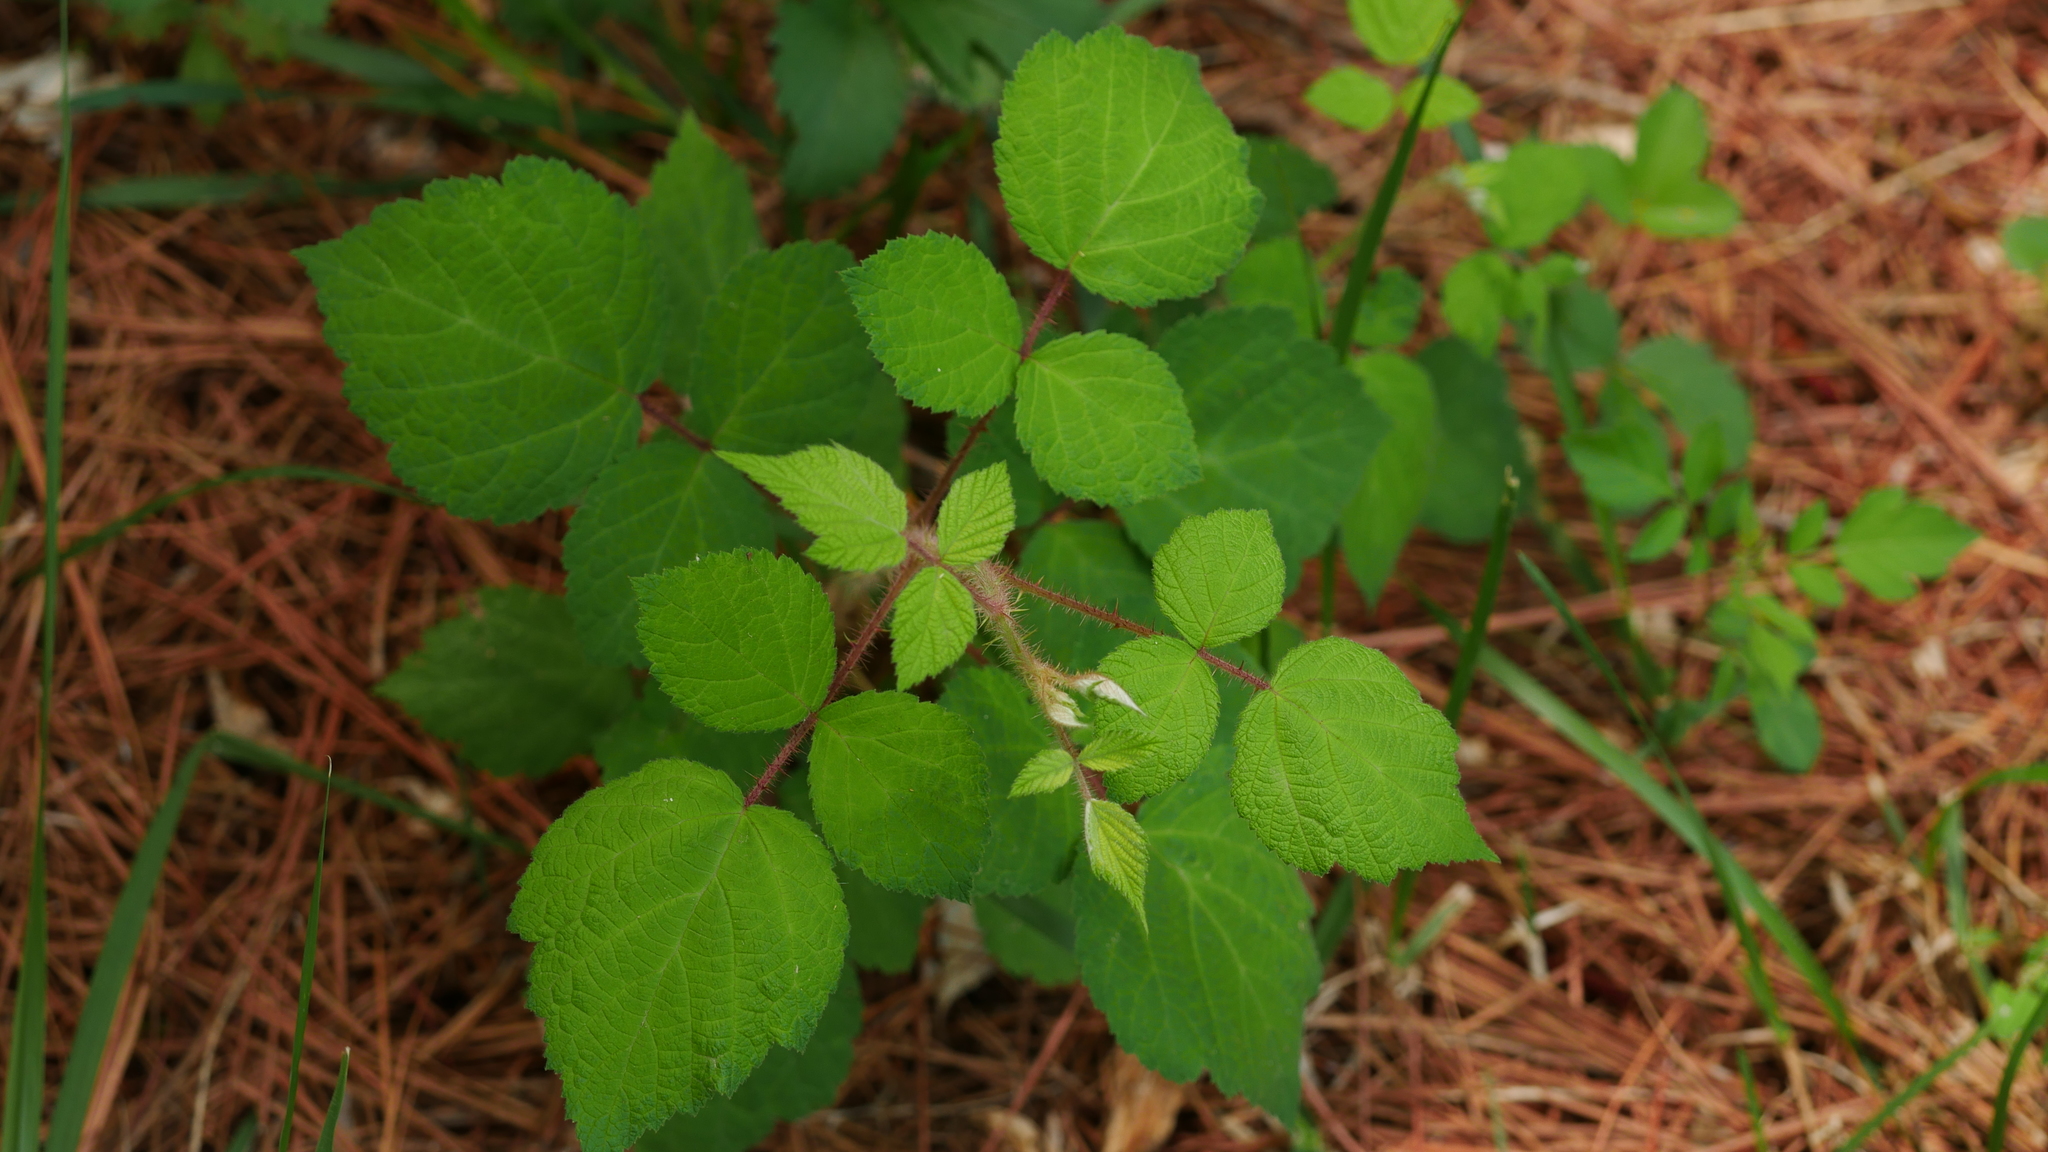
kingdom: Plantae
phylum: Tracheophyta
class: Magnoliopsida
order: Rosales
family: Rosaceae
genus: Rubus
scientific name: Rubus phoenicolasius
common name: Japanese wineberry
